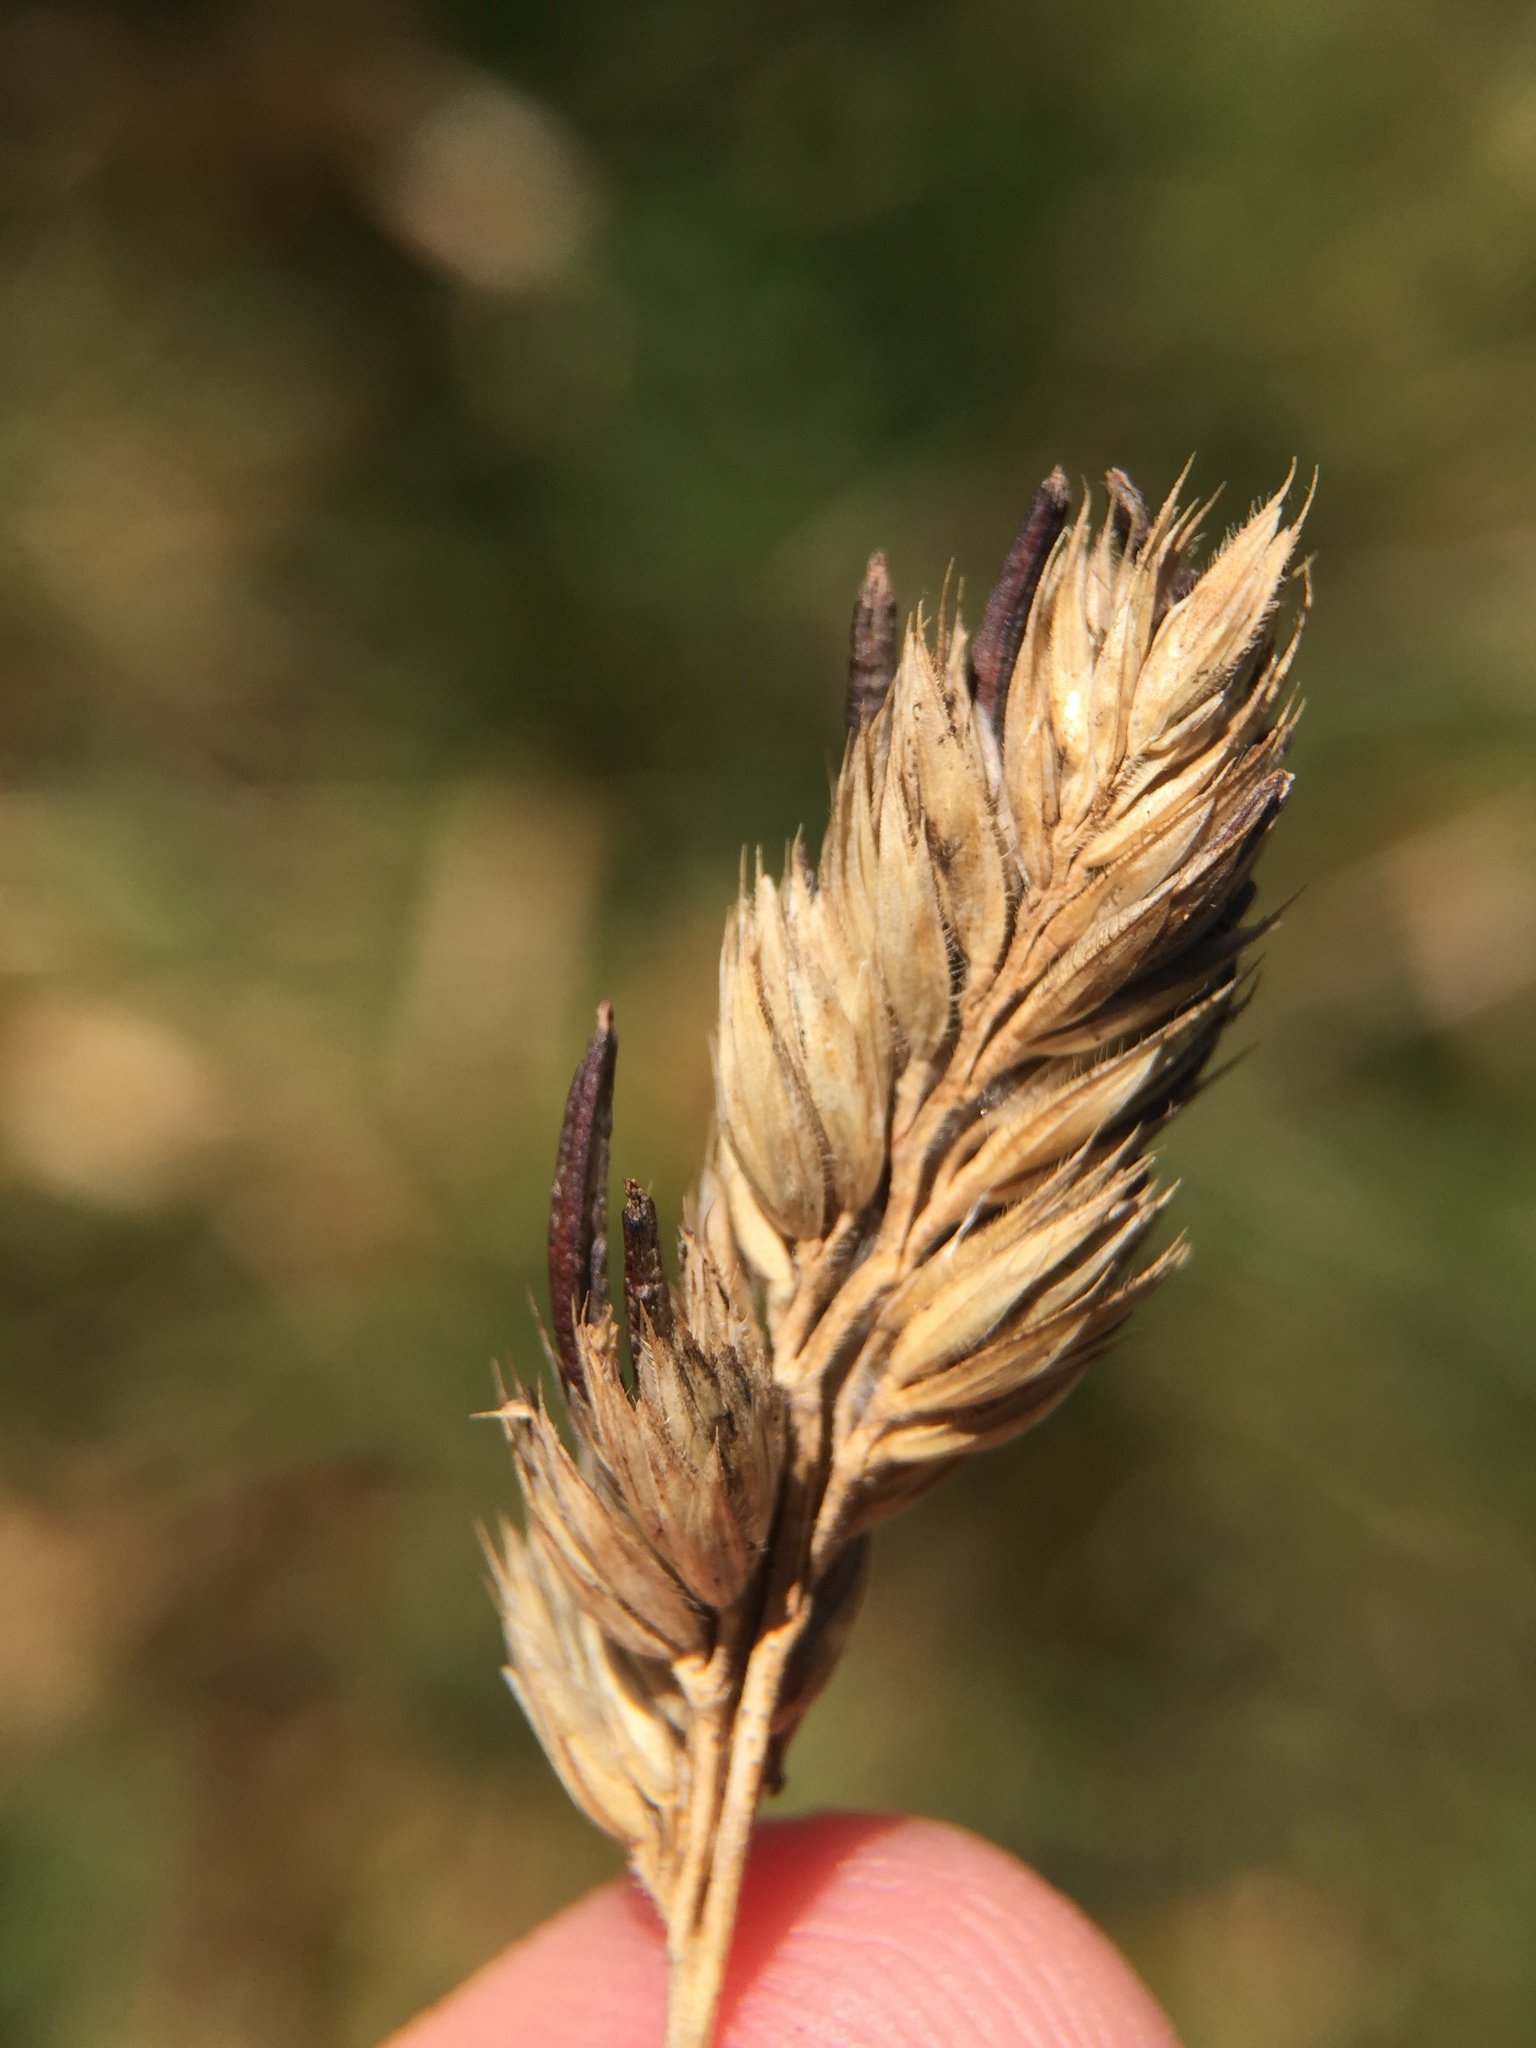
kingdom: Fungi
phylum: Ascomycota
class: Sordariomycetes
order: Hypocreales
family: Clavicipitaceae
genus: Claviceps
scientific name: Claviceps purpurea
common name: Rye ergot
